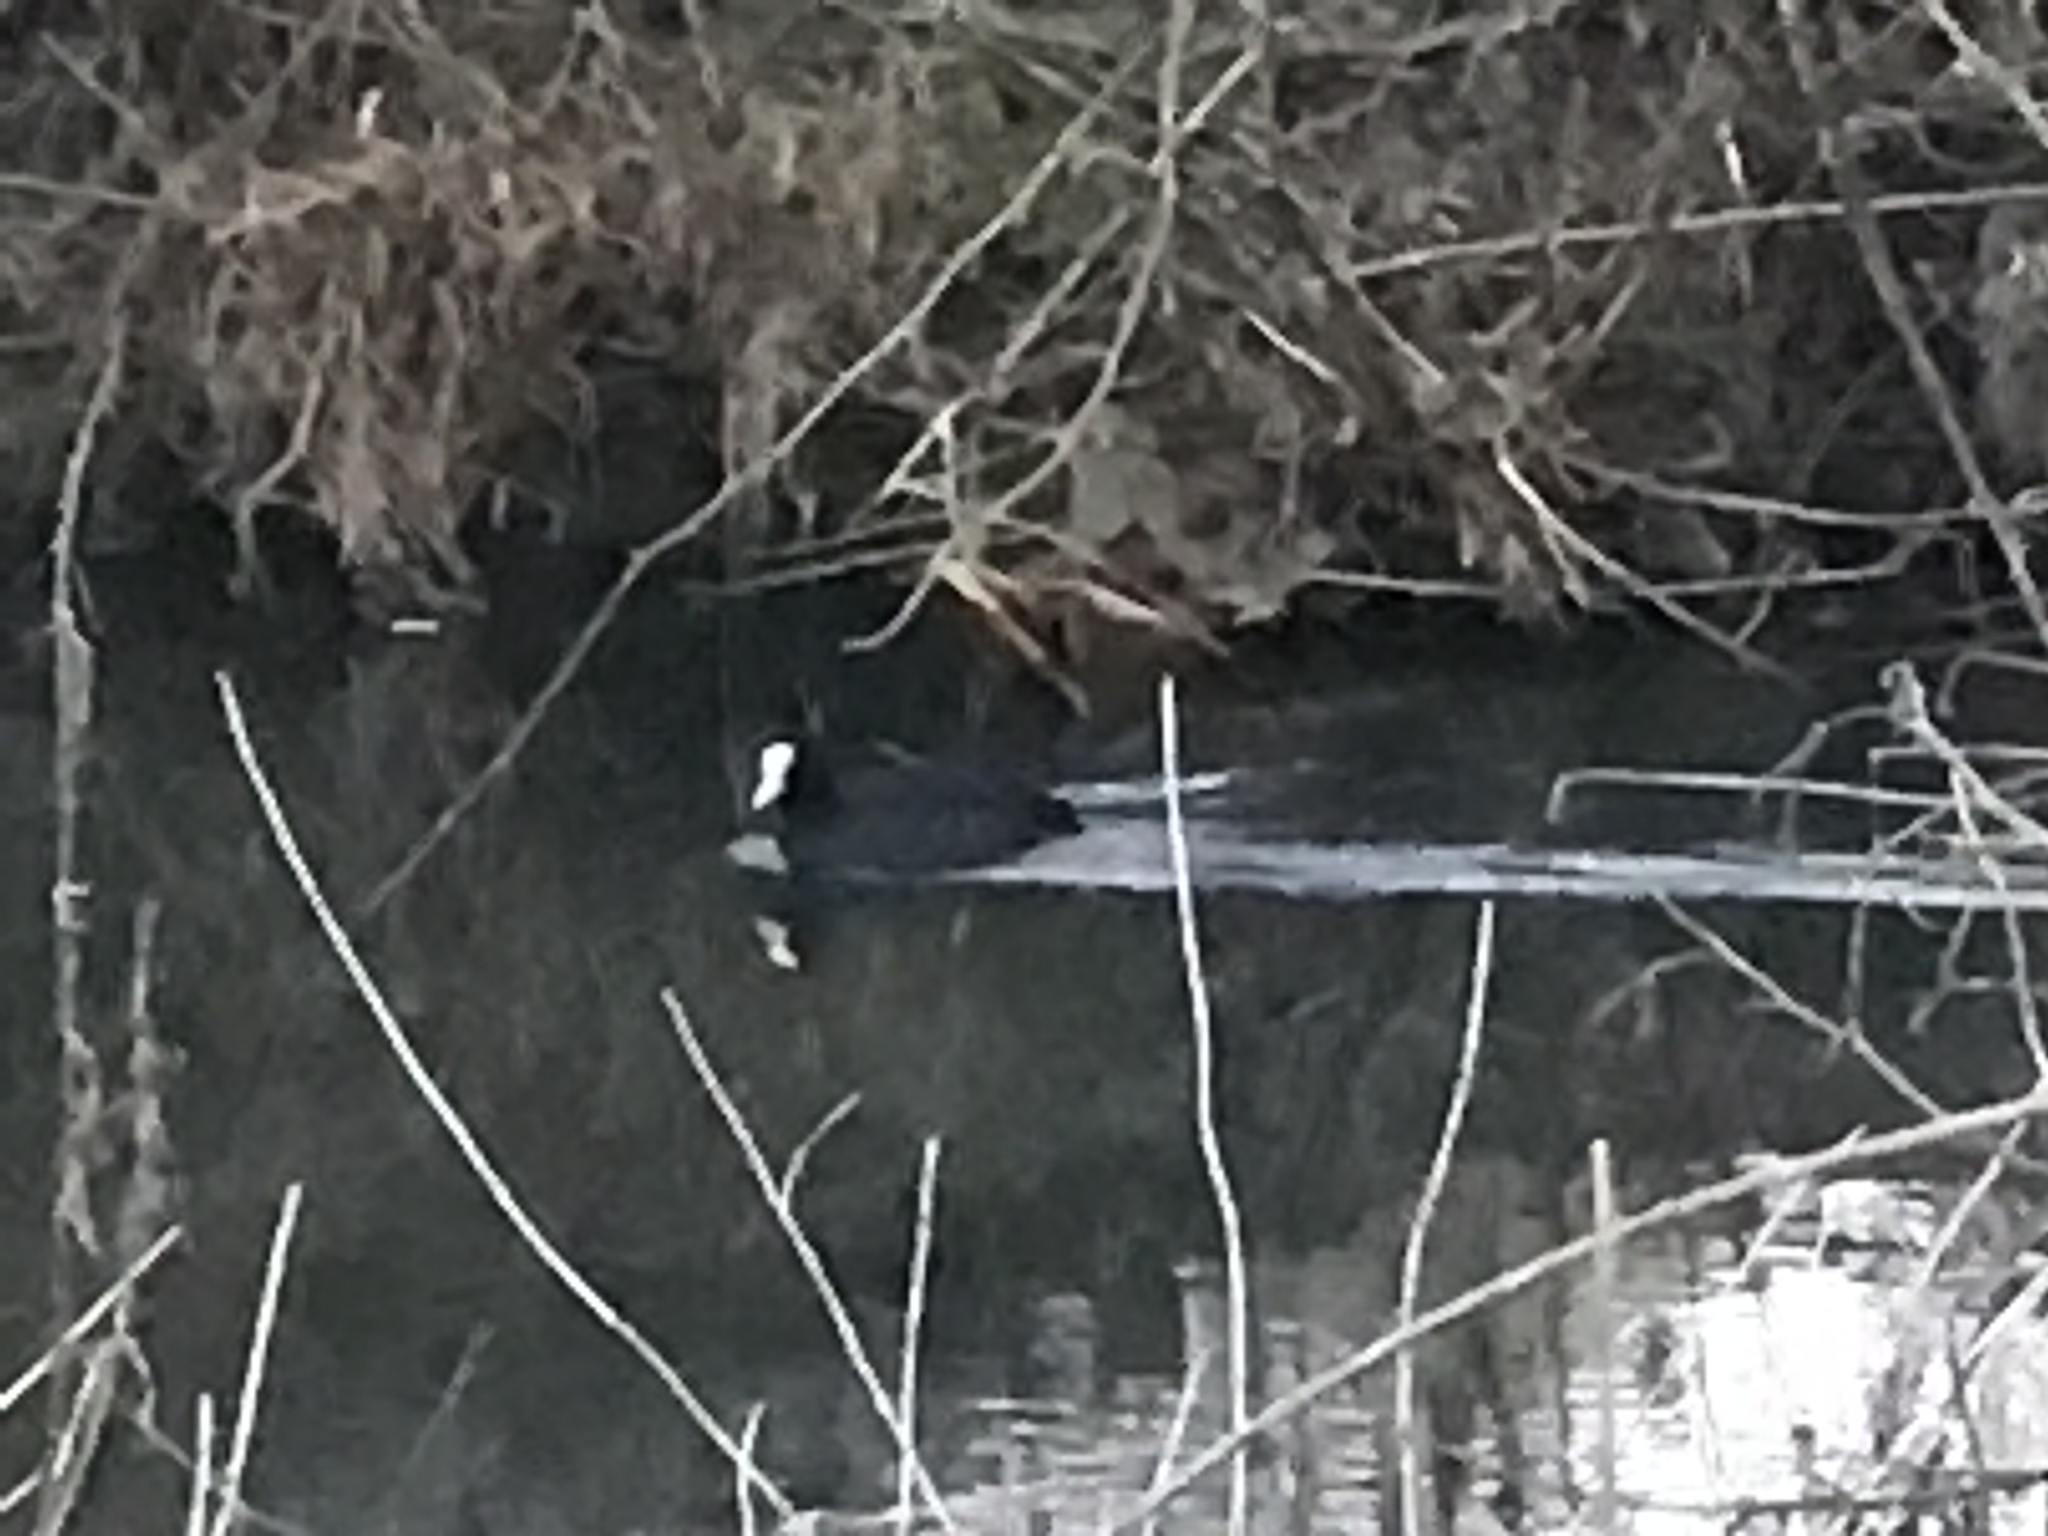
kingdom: Animalia
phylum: Chordata
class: Aves
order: Gruiformes
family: Rallidae
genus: Fulica
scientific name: Fulica atra
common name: Eurasian coot
